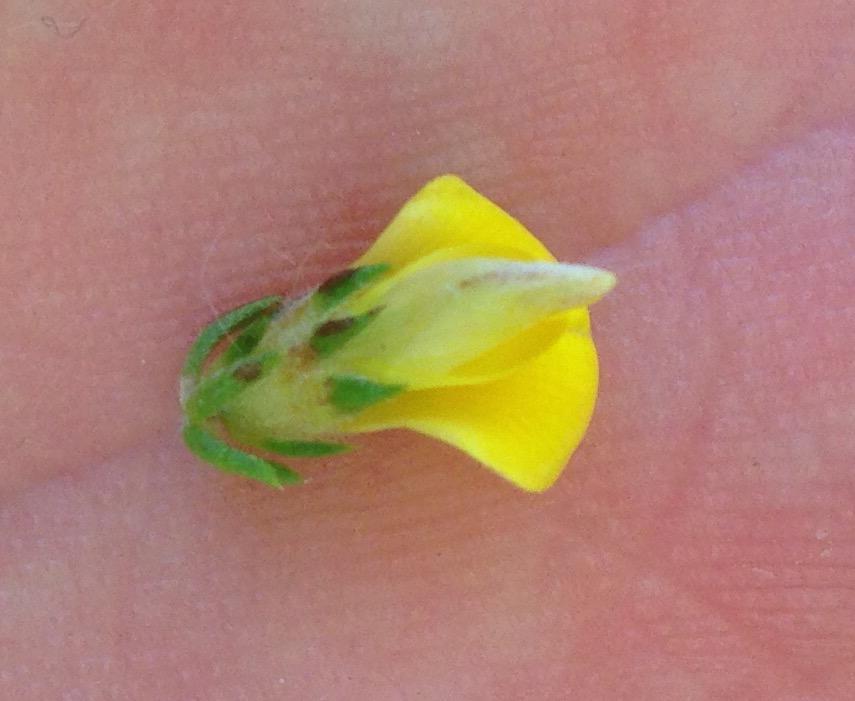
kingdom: Plantae
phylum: Tracheophyta
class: Magnoliopsida
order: Fabales
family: Fabaceae
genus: Aspalathus
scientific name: Aspalathus opaca
